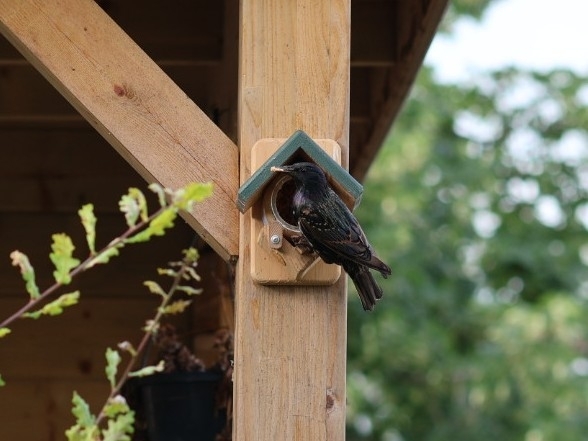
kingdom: Animalia
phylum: Chordata
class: Aves
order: Passeriformes
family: Sturnidae
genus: Sturnus
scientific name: Sturnus vulgaris
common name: Common starling
